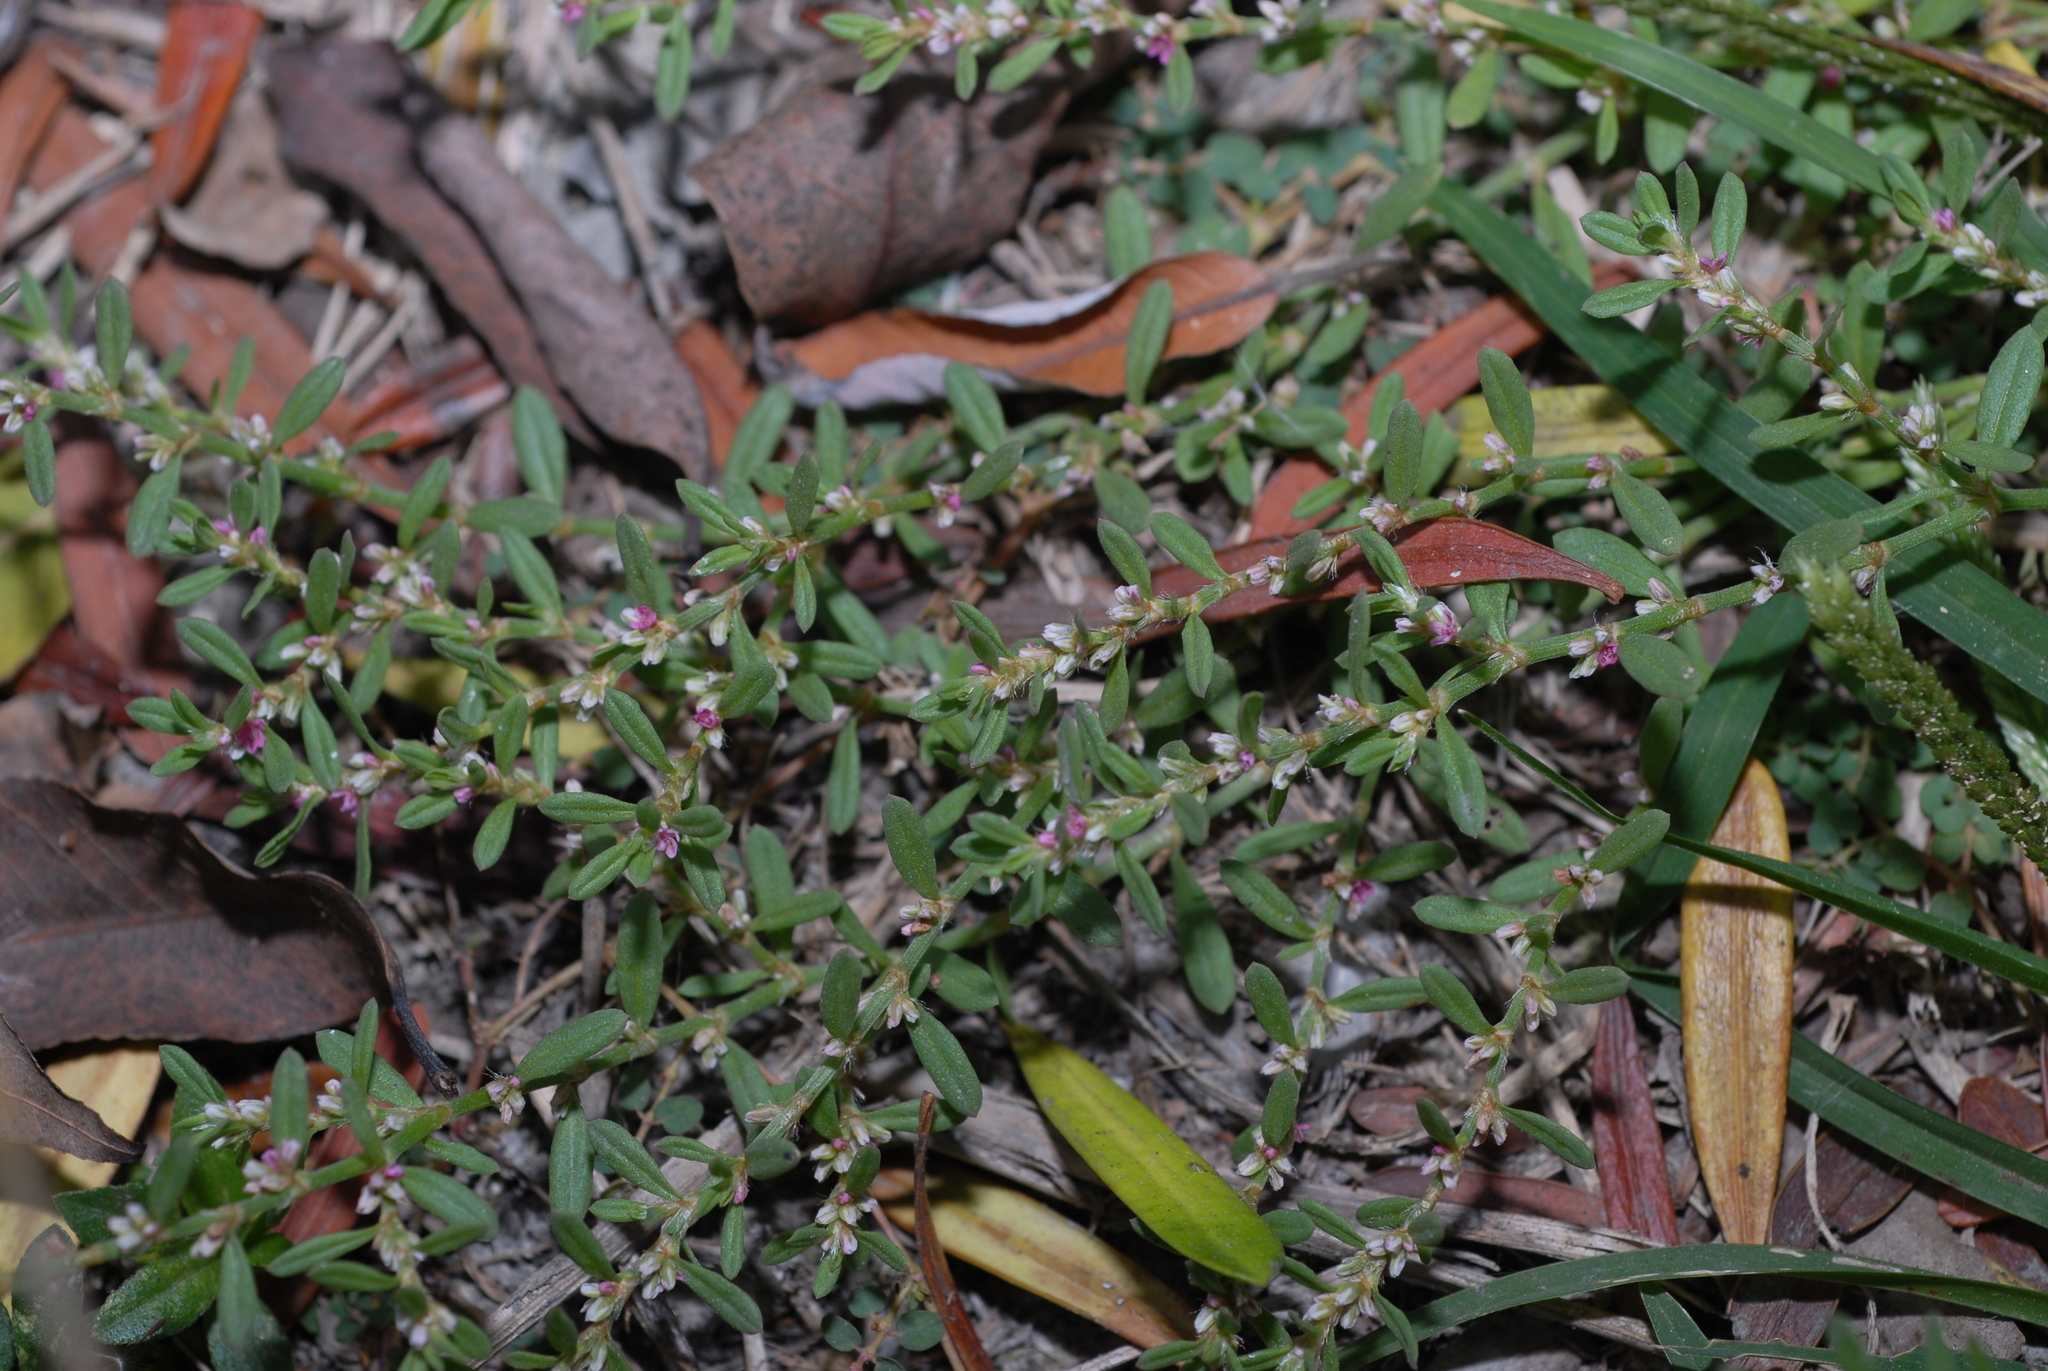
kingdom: Plantae
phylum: Tracheophyta
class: Magnoliopsida
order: Caryophyllales
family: Polygonaceae
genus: Polygonum
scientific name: Polygonum plebeium
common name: Common knotweed
